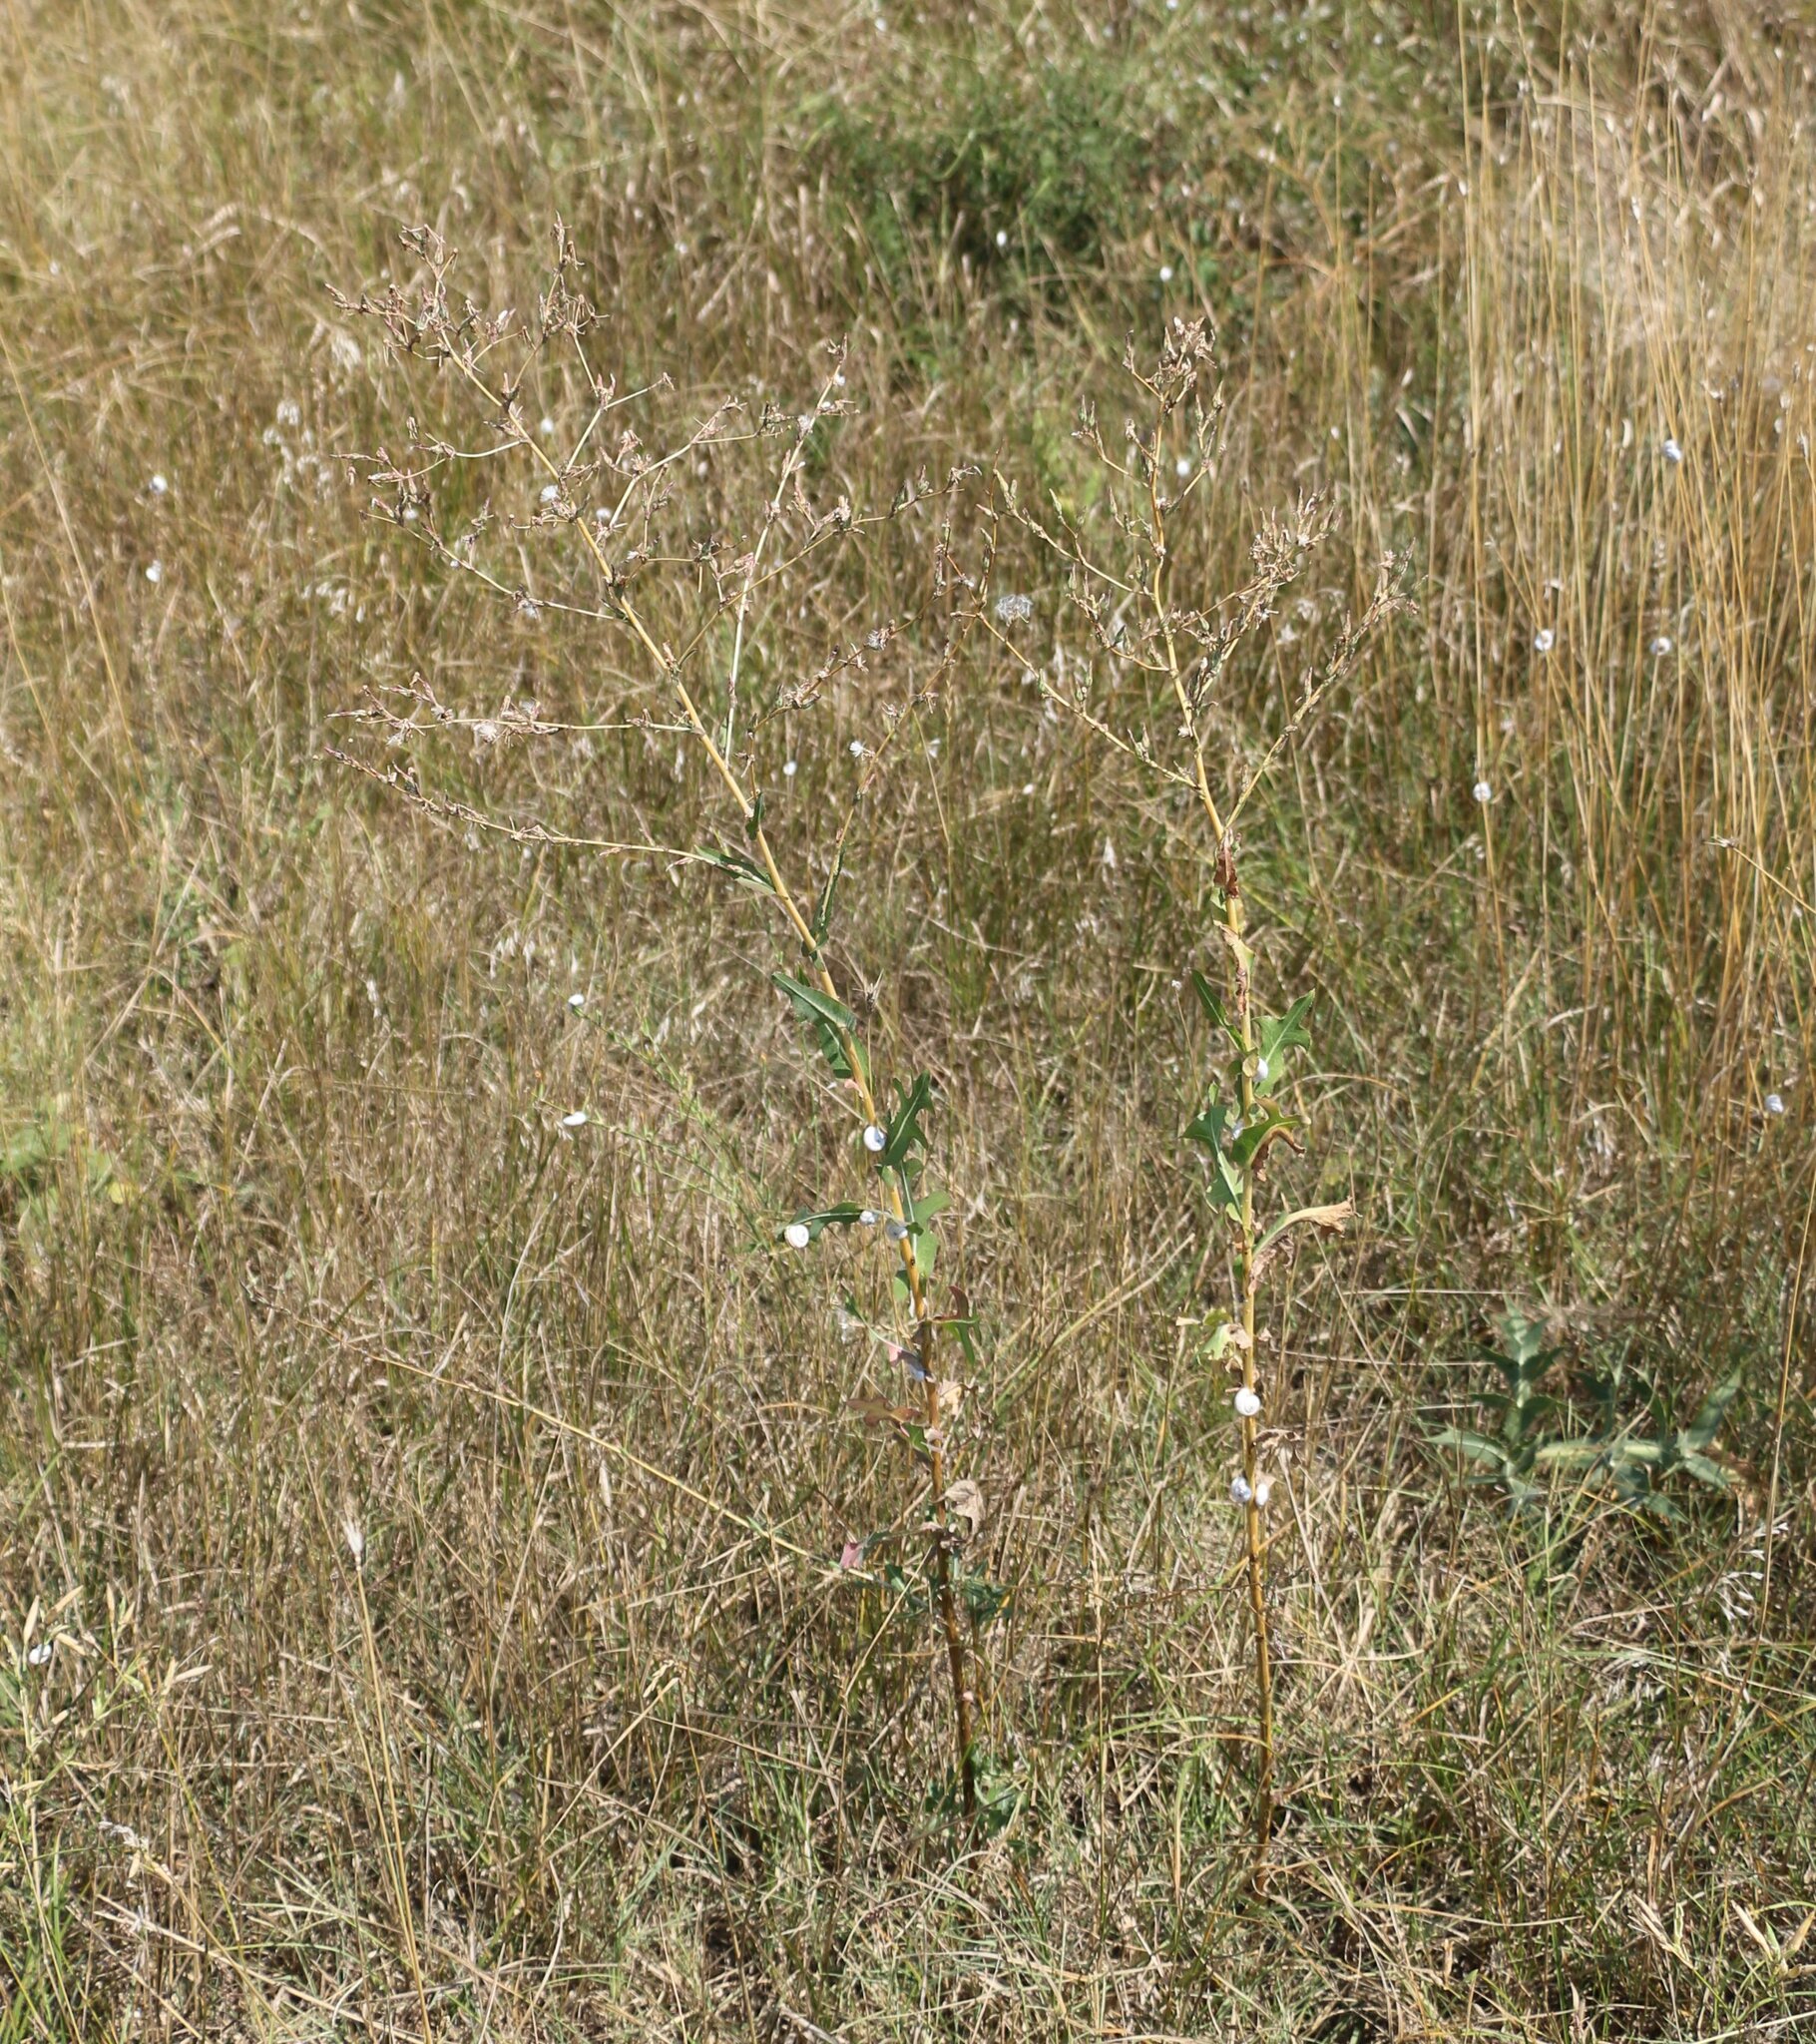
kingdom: Plantae
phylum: Tracheophyta
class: Magnoliopsida
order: Asterales
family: Asteraceae
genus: Lactuca
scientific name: Lactuca serriola
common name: Prickly lettuce
